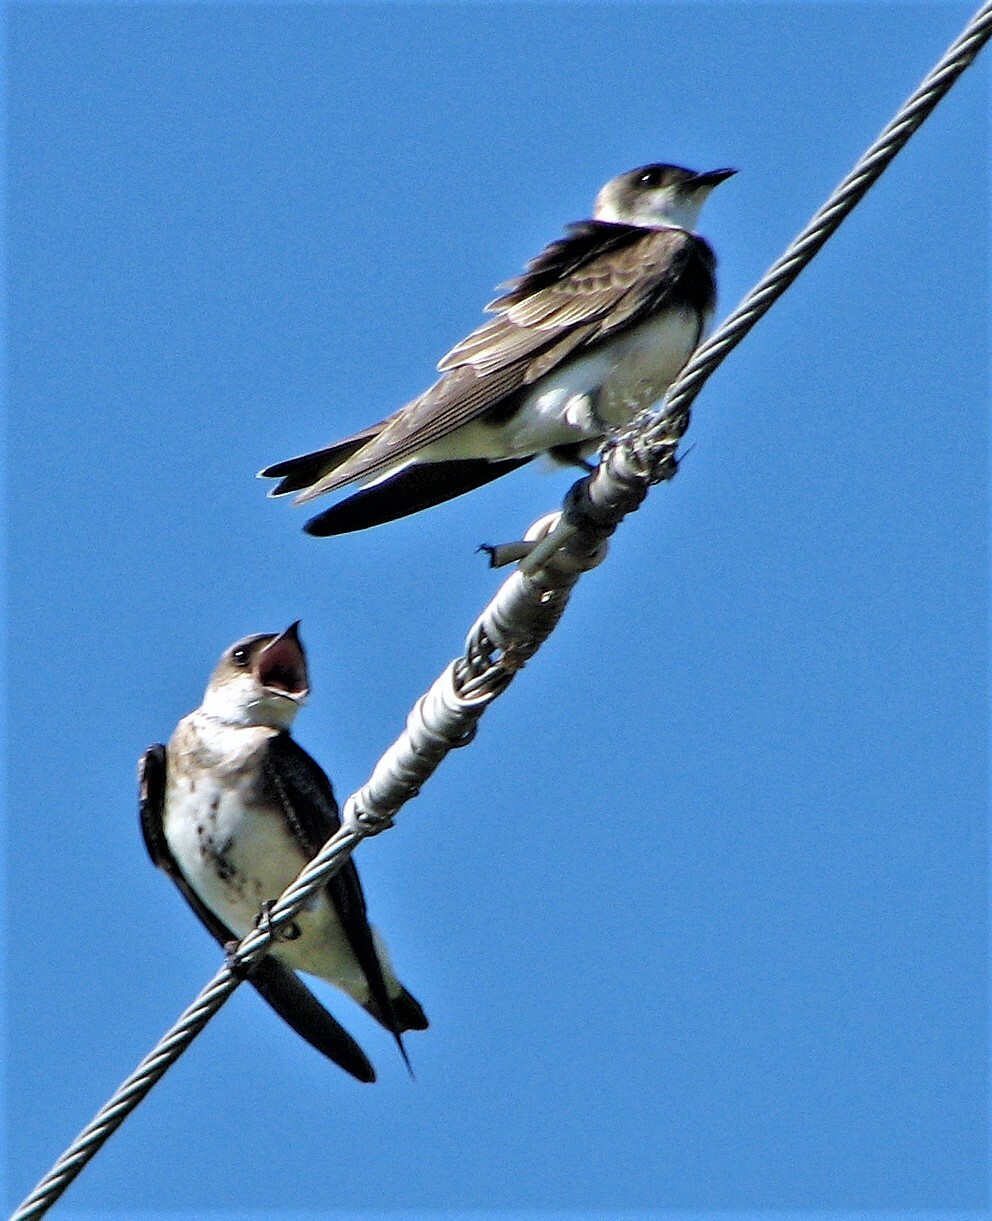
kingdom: Animalia
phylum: Chordata
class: Aves
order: Passeriformes
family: Hirundinidae
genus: Progne
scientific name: Progne tapera
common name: Brown-chested martin
